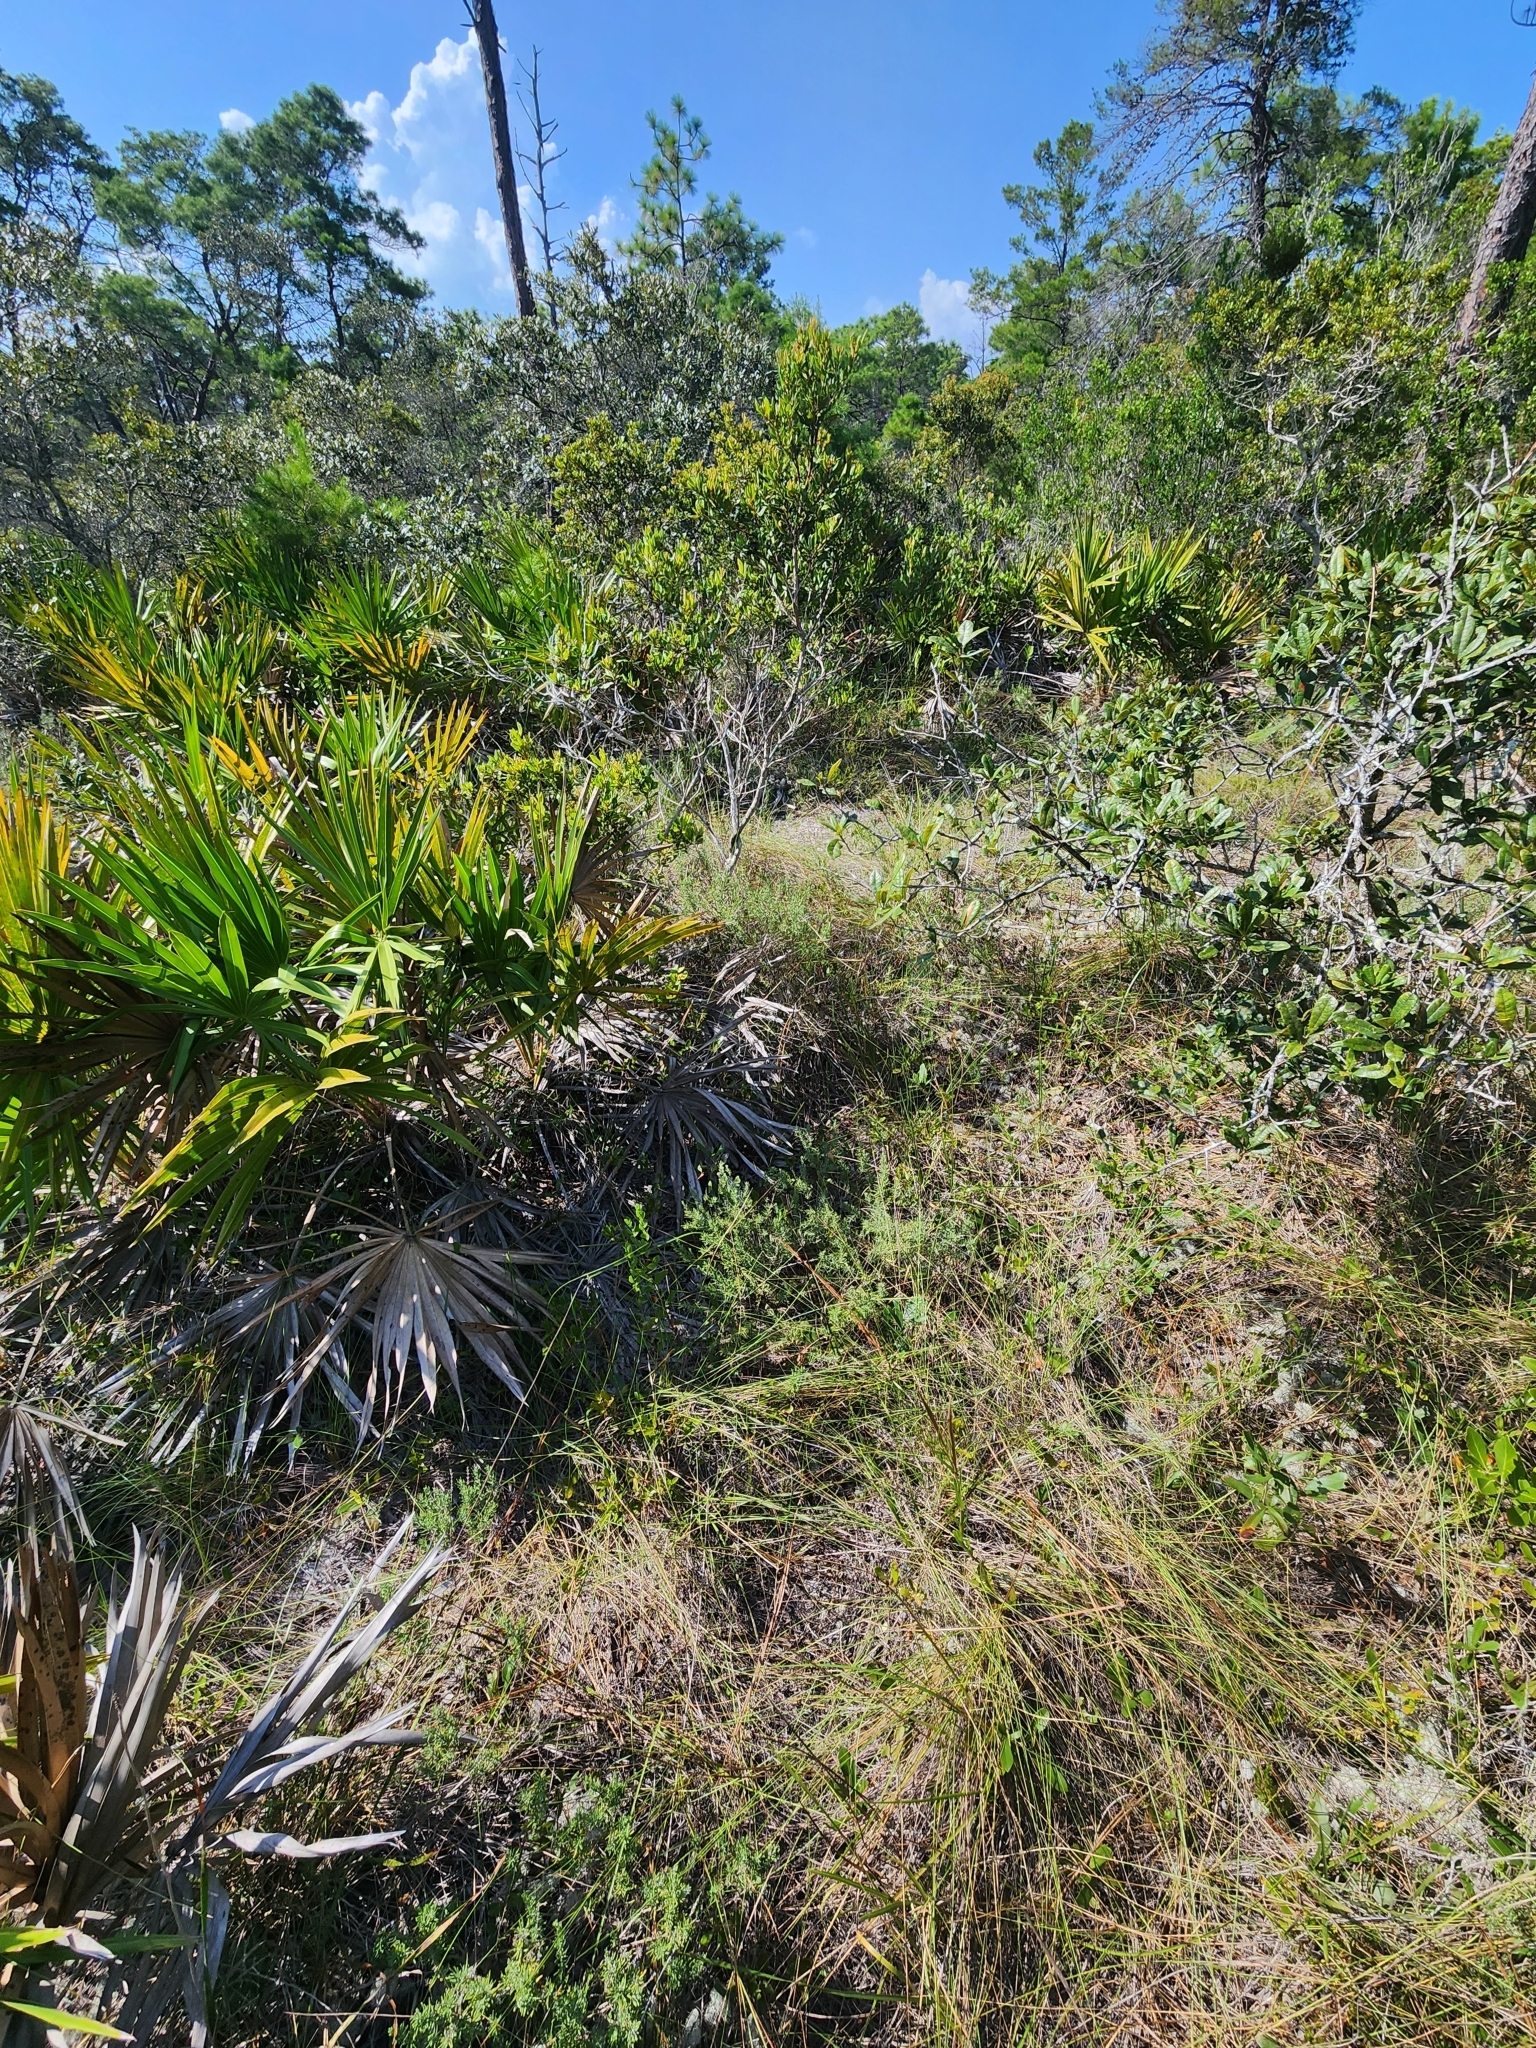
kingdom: Plantae
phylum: Tracheophyta
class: Magnoliopsida
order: Gentianales
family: Apocynaceae
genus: Asclepias
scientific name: Asclepias pedicellata
